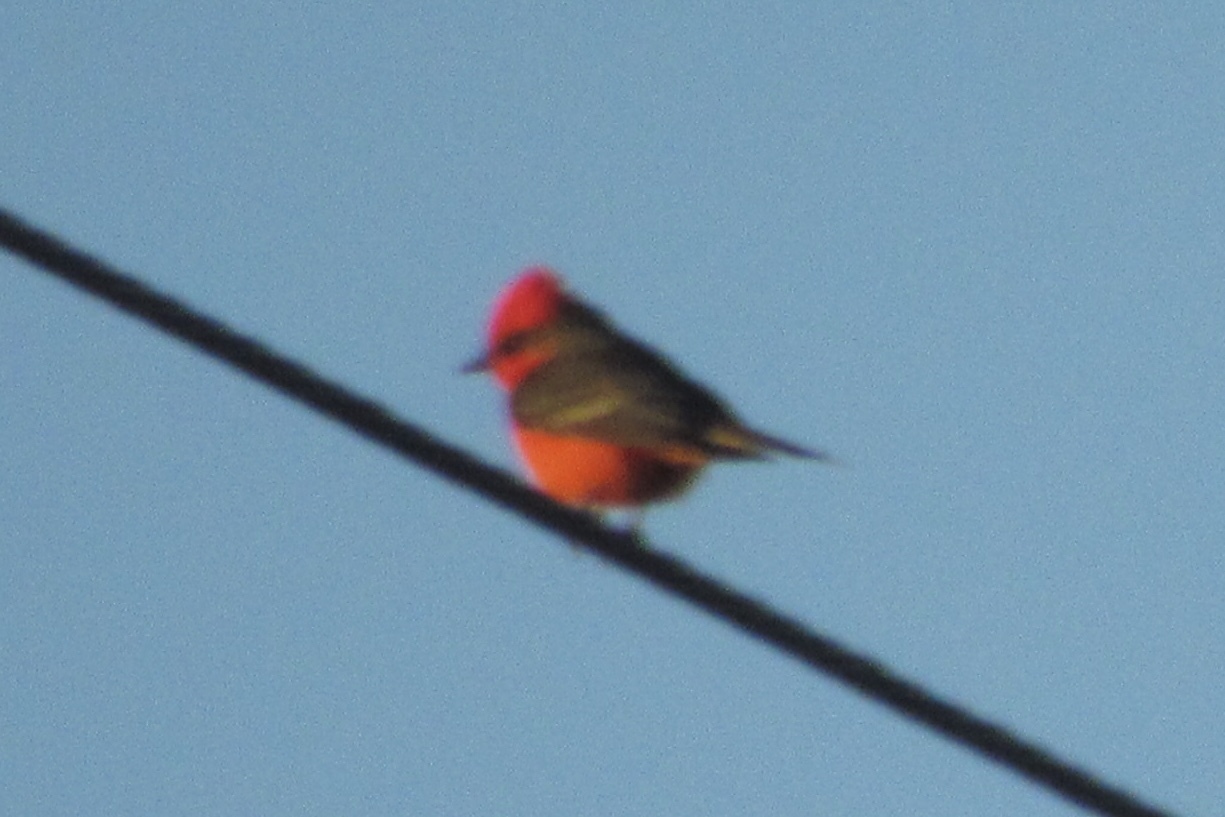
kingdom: Animalia
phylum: Chordata
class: Aves
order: Passeriformes
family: Tyrannidae
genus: Pyrocephalus
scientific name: Pyrocephalus rubinus
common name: Vermilion flycatcher
